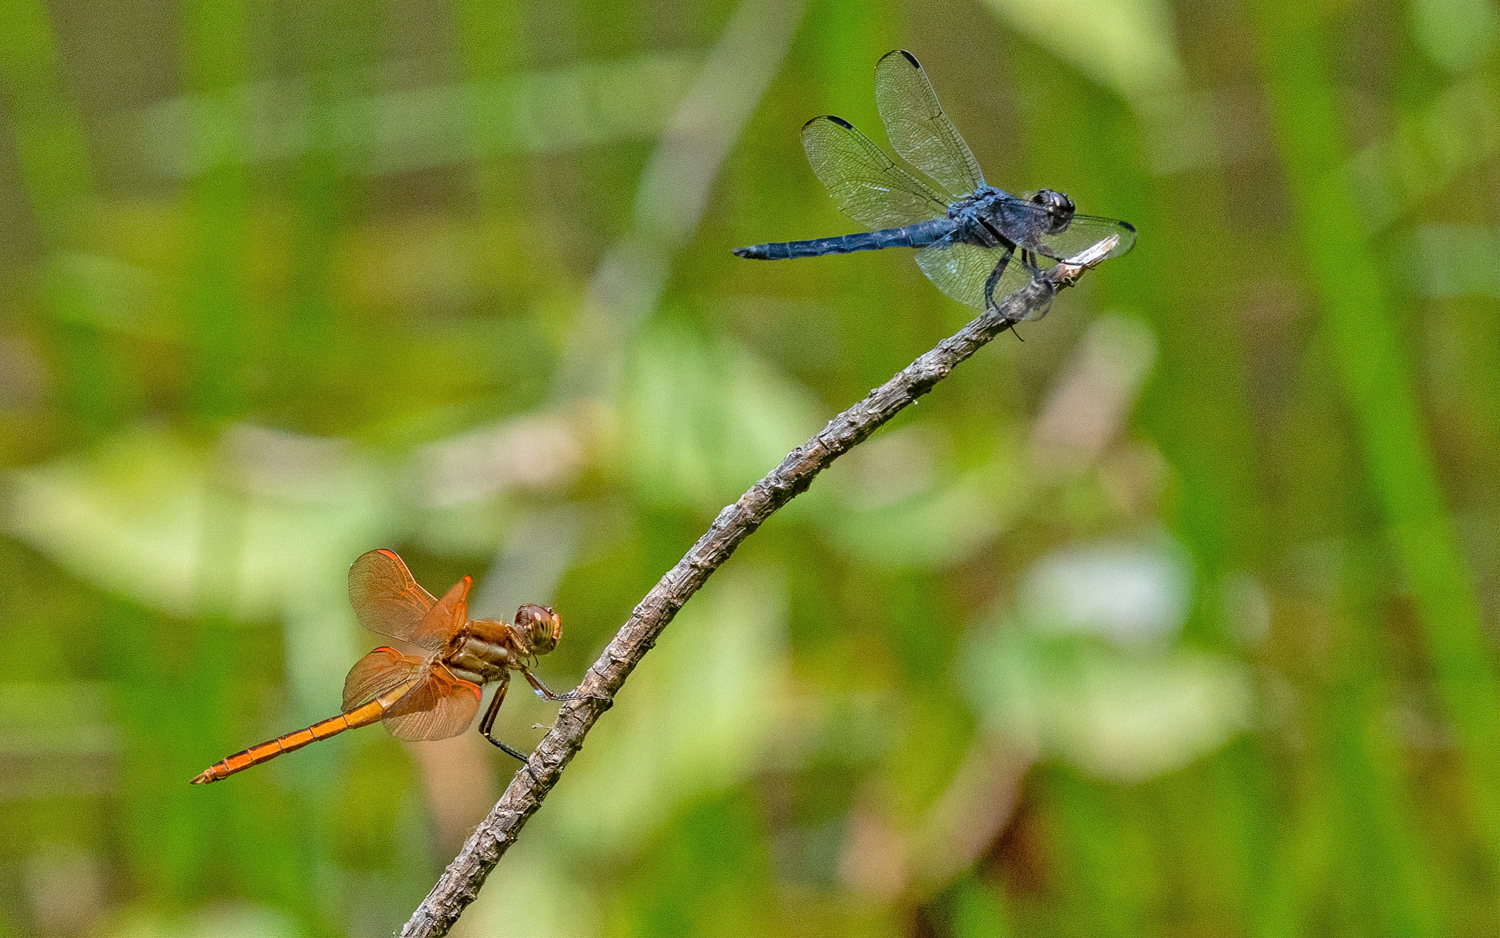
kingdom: Animalia
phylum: Arthropoda
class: Insecta
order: Odonata
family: Libellulidae
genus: Libellula
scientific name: Libellula auripennis
